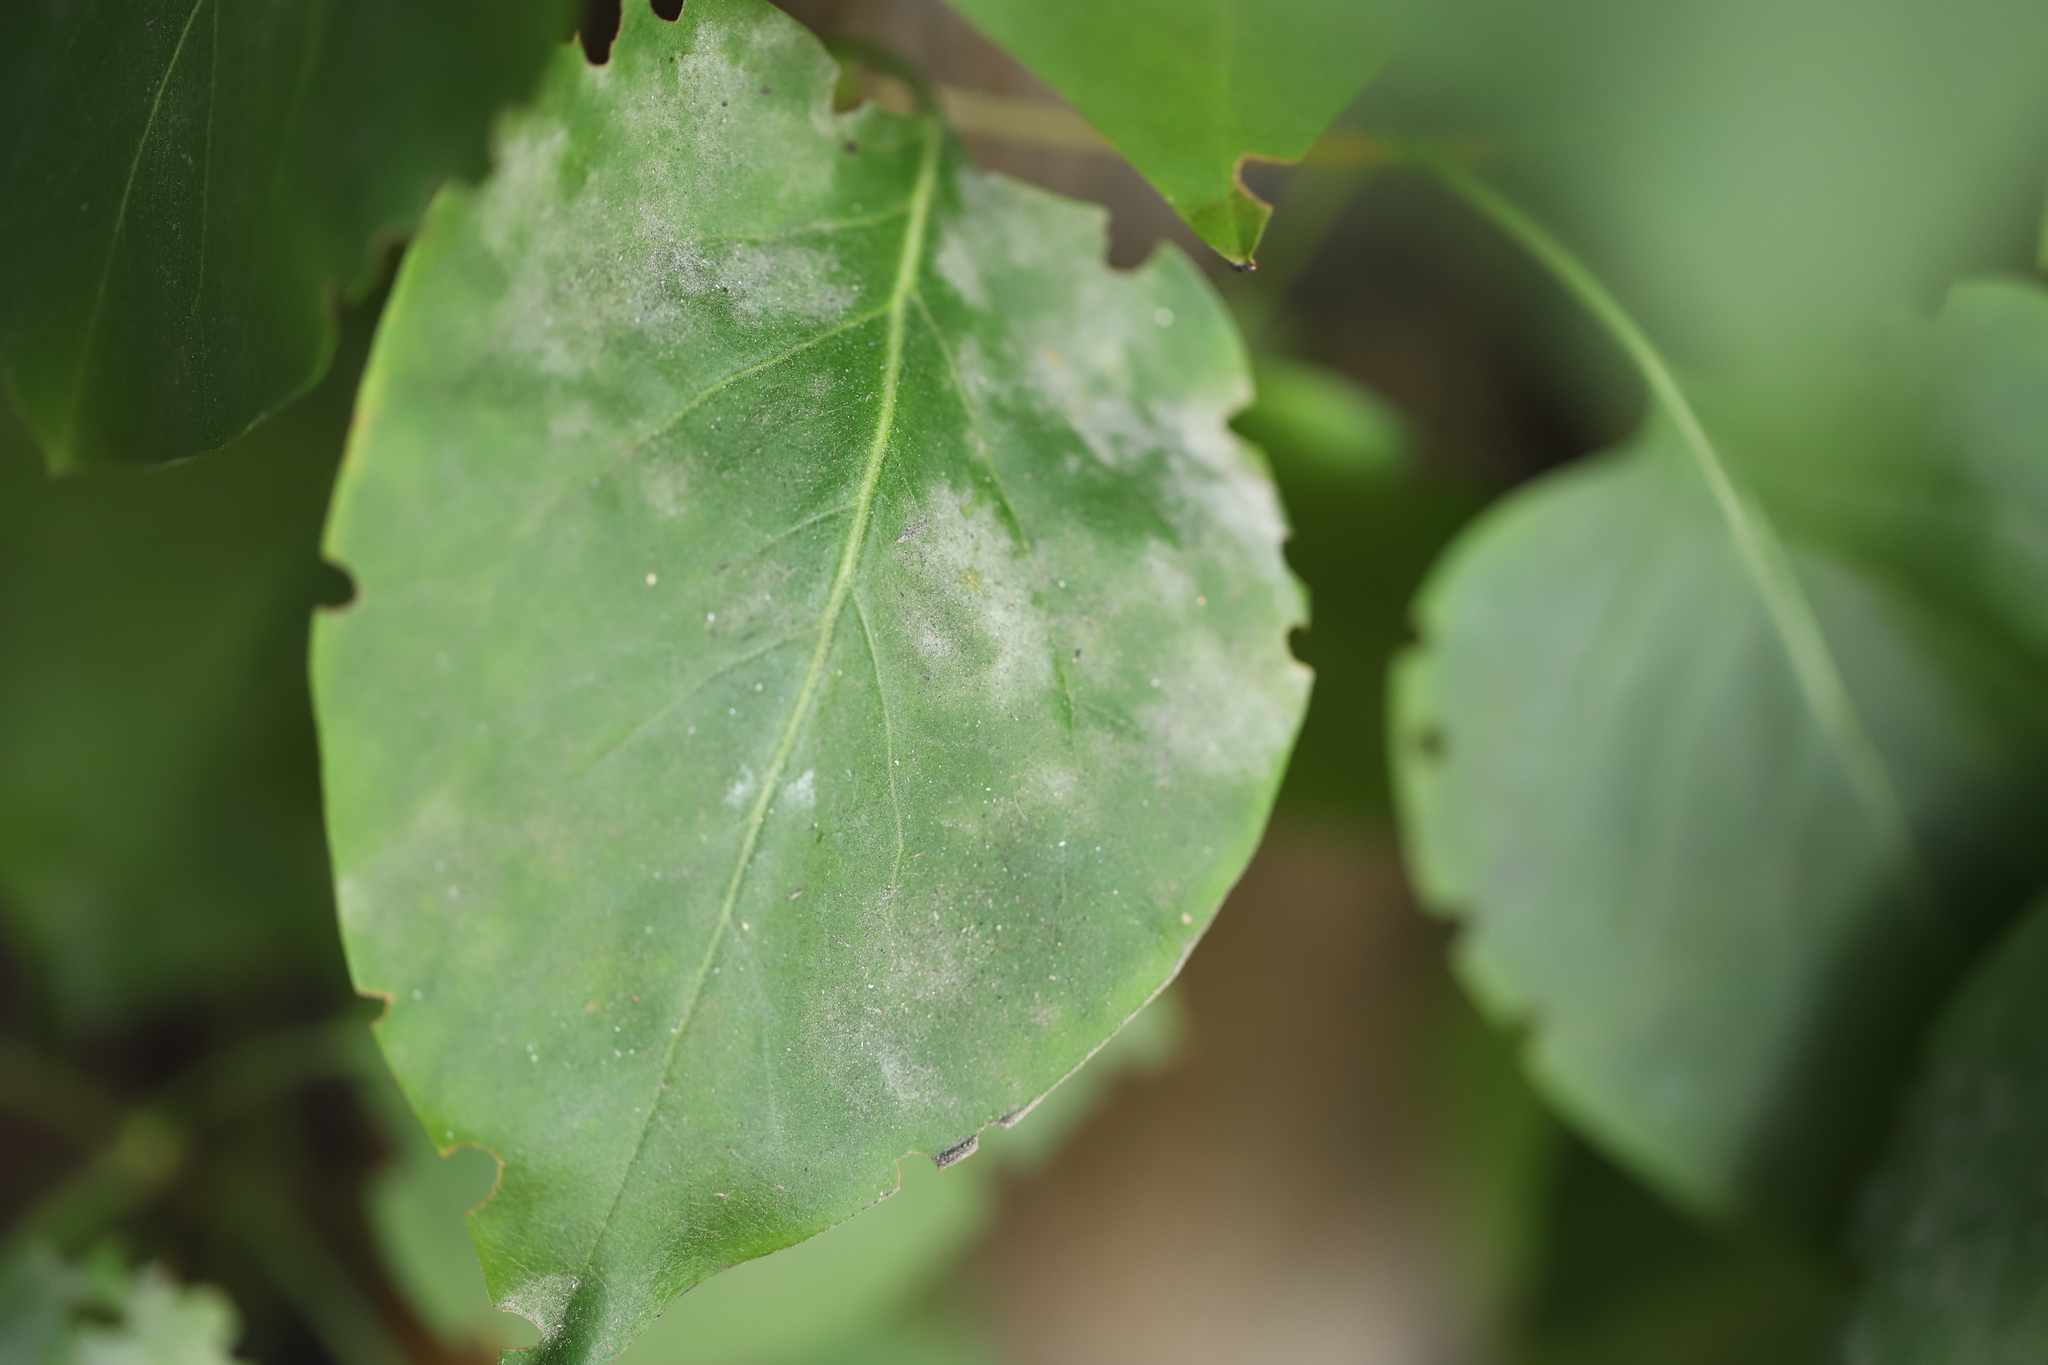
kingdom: Fungi
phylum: Ascomycota
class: Leotiomycetes
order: Helotiales
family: Erysiphaceae
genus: Erysiphe
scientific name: Erysiphe adunca
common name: Willow mildew
